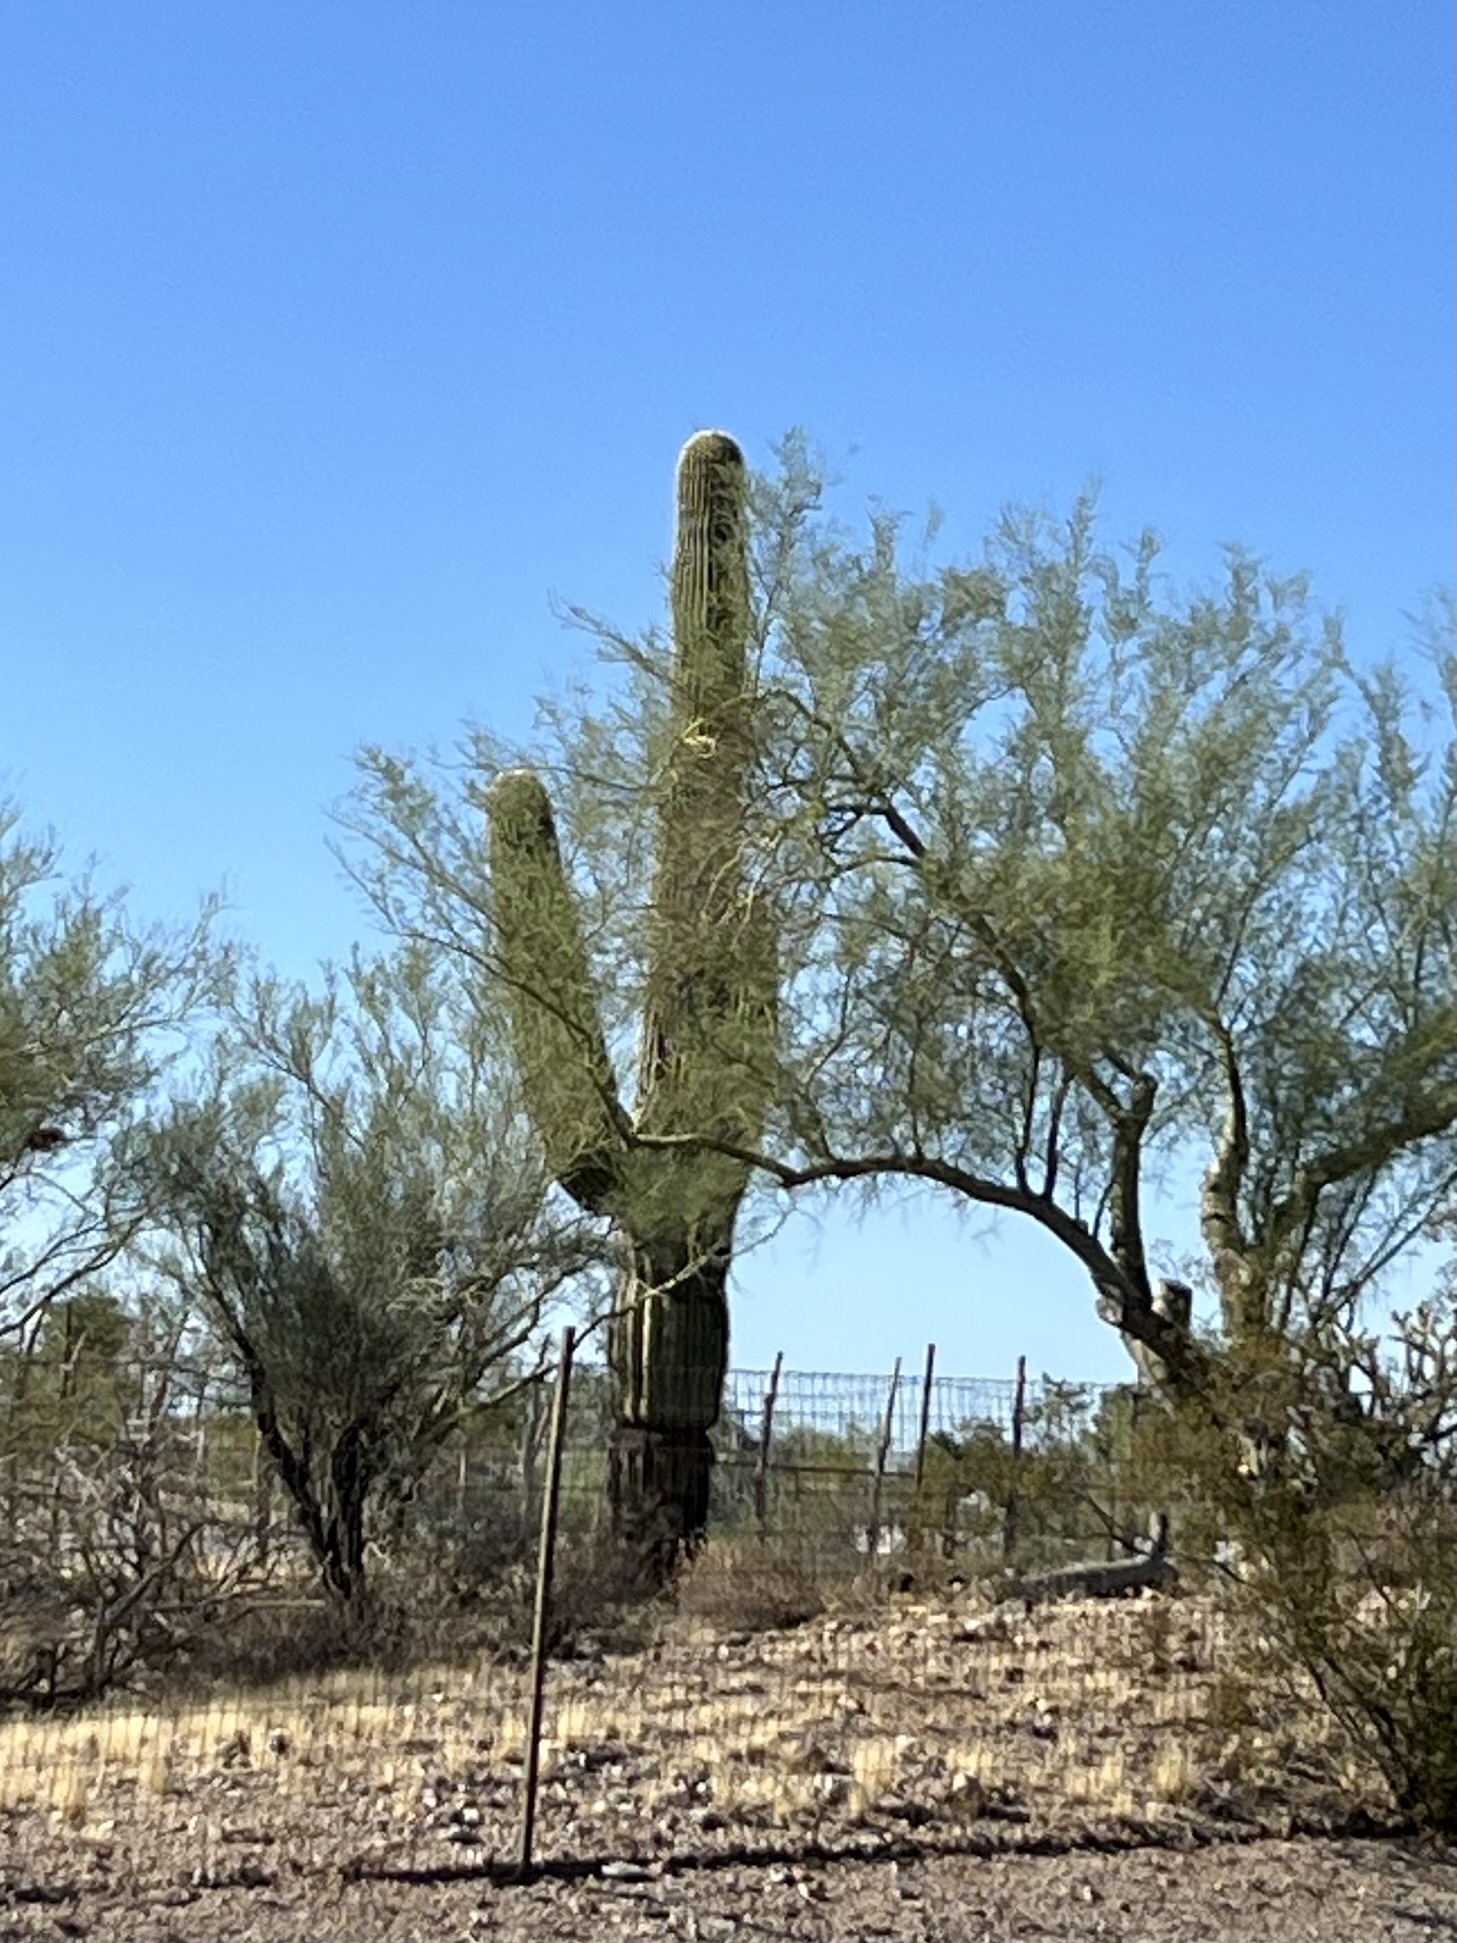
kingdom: Plantae
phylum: Tracheophyta
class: Magnoliopsida
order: Caryophyllales
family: Cactaceae
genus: Carnegiea
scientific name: Carnegiea gigantea
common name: Saguaro
